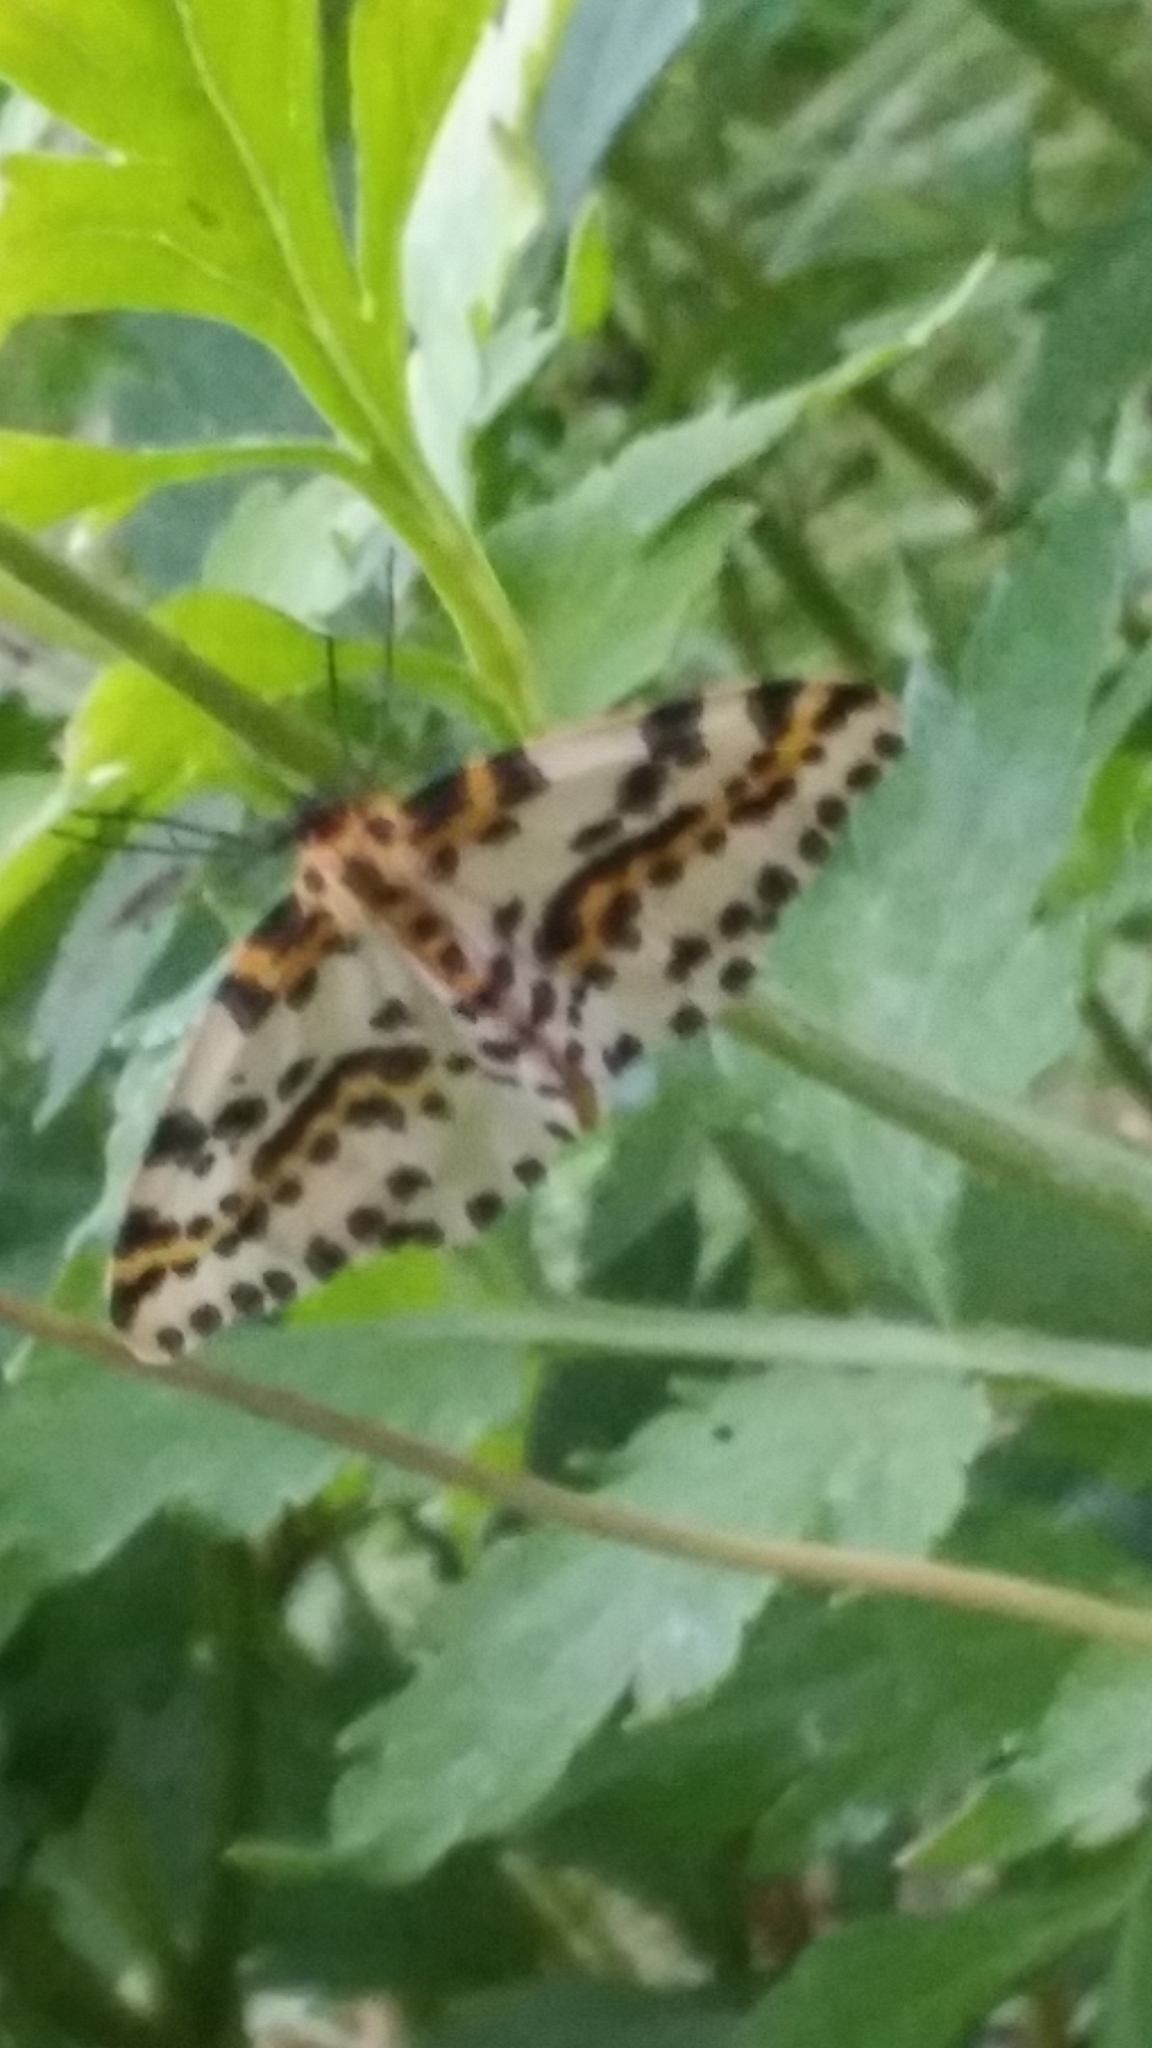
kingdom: Animalia
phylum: Arthropoda
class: Insecta
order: Lepidoptera
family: Geometridae
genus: Abraxas
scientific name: Abraxas grossulariata
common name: Magpie
